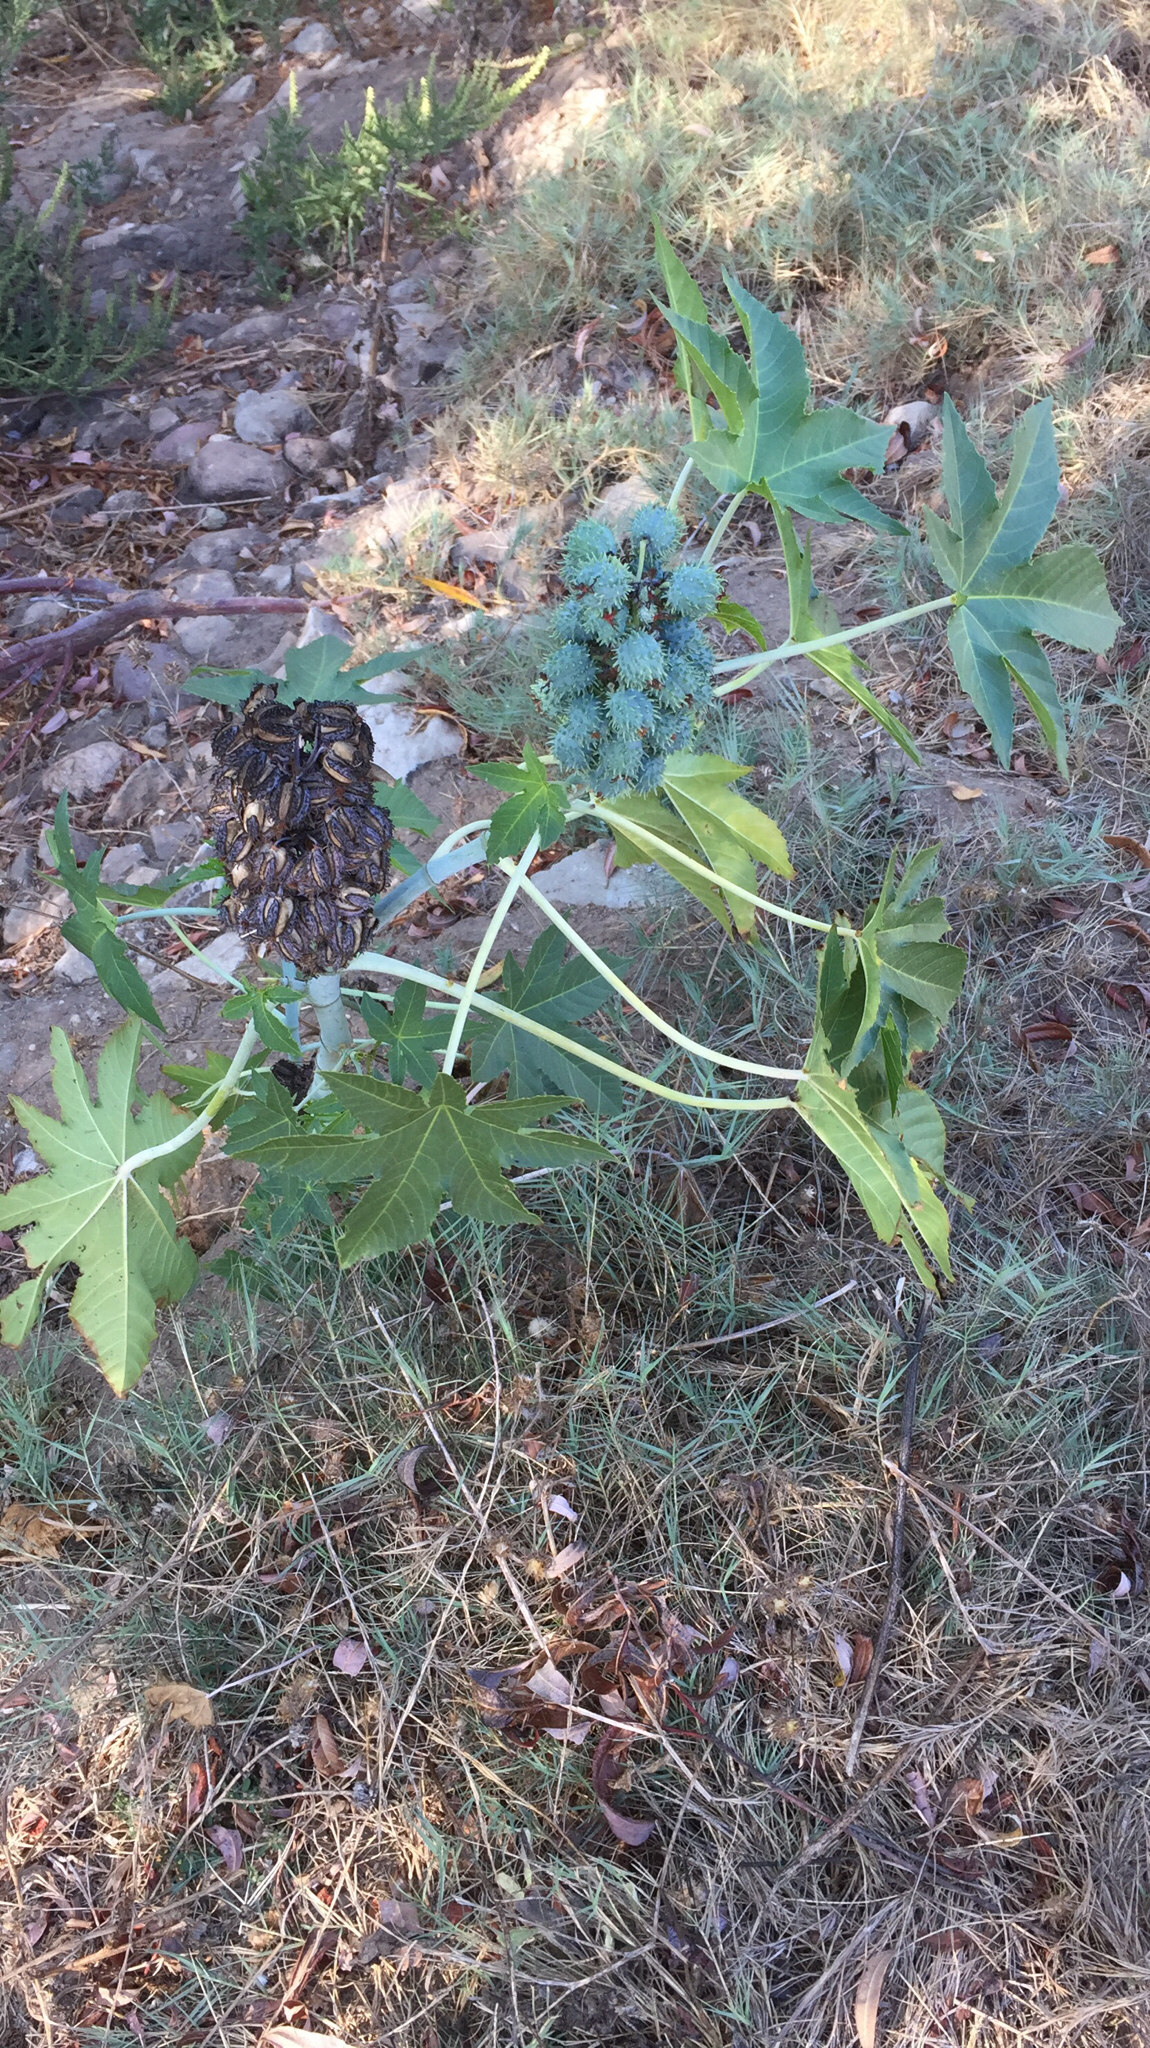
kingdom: Plantae
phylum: Tracheophyta
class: Magnoliopsida
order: Malpighiales
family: Euphorbiaceae
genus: Ricinus
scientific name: Ricinus communis
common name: Castor-oil-plant
